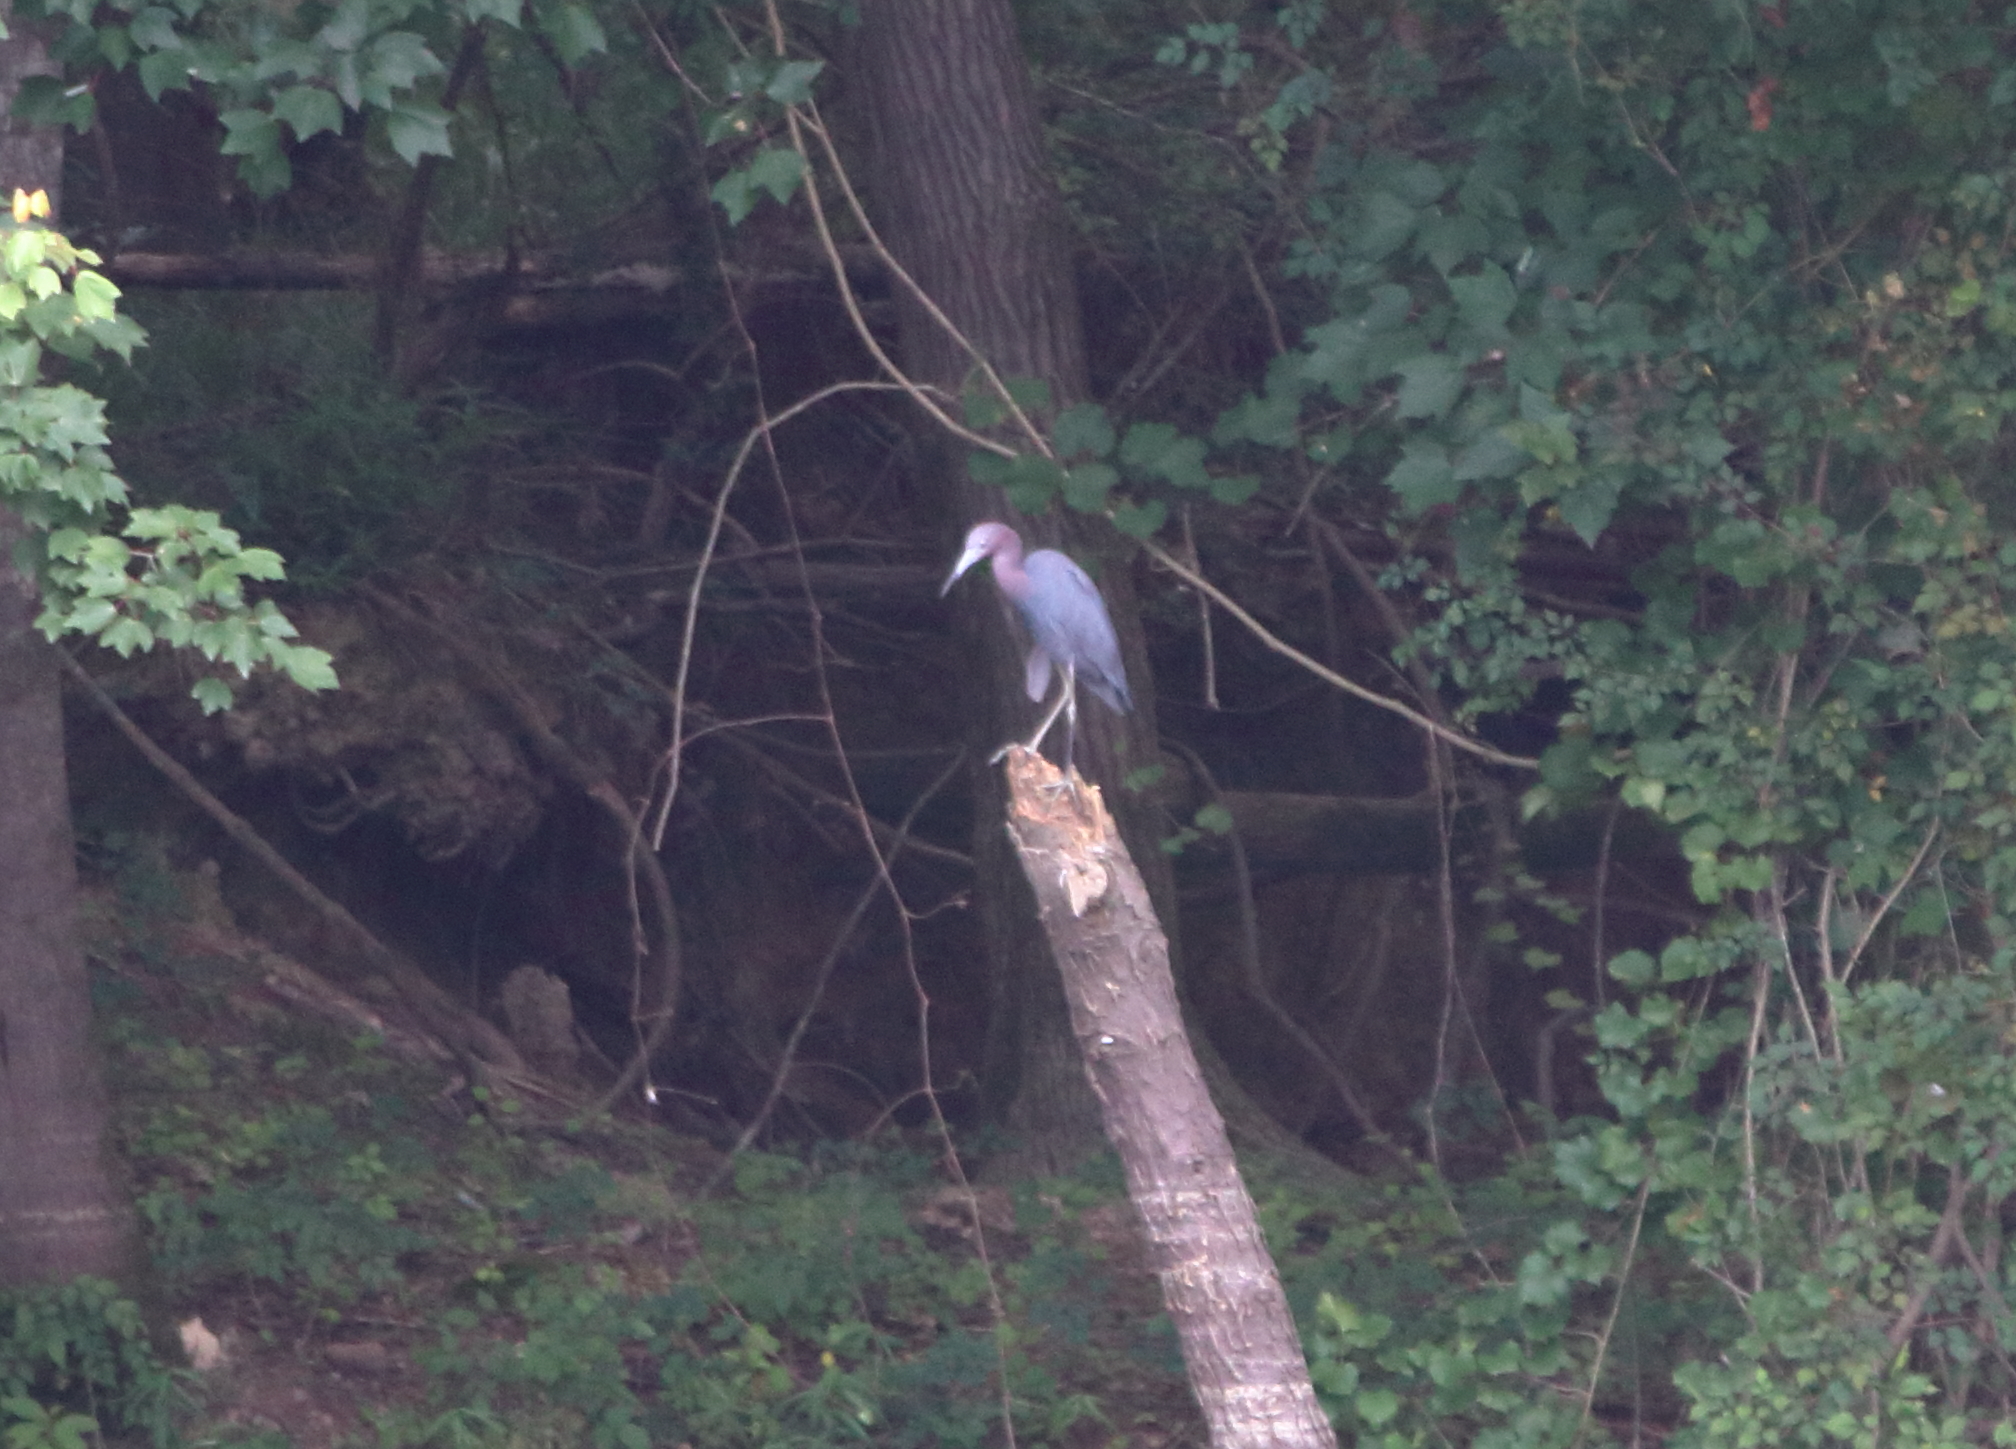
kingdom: Animalia
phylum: Chordata
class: Aves
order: Pelecaniformes
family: Ardeidae
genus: Egretta
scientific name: Egretta caerulea
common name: Little blue heron
